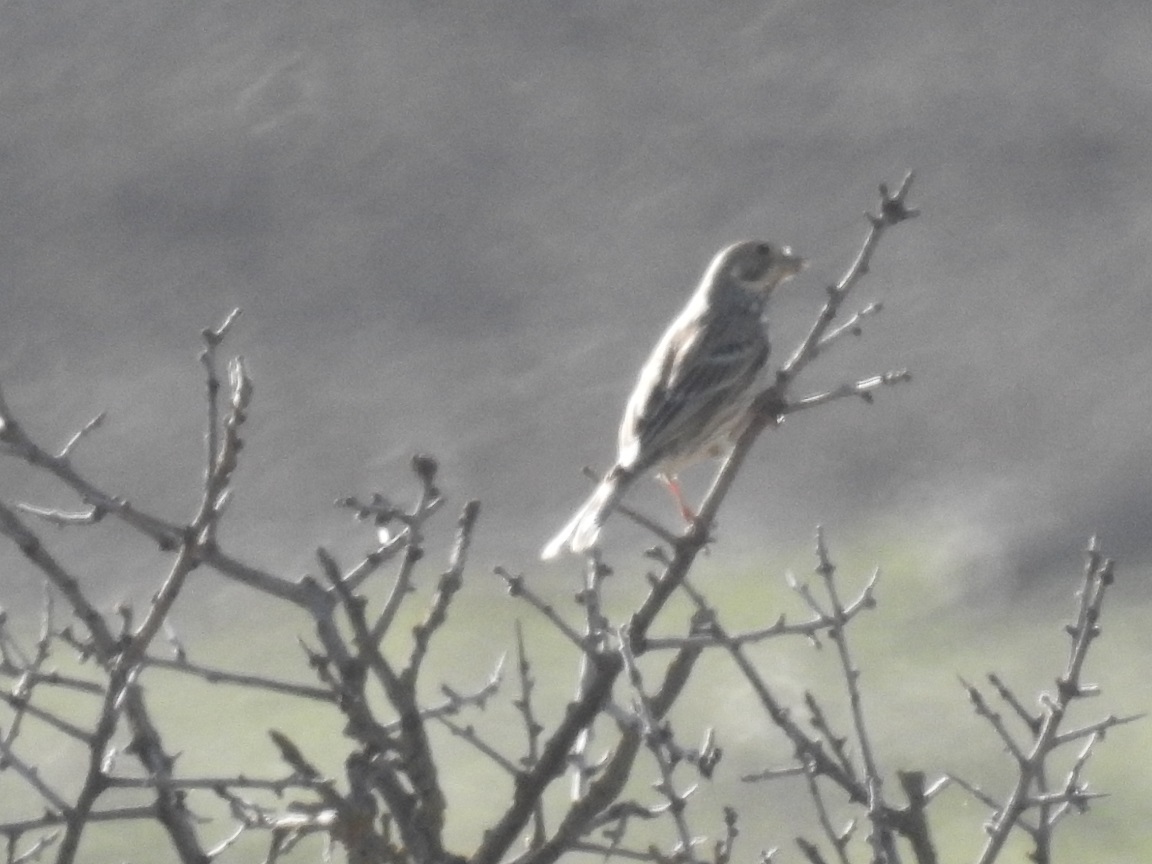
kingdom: Animalia
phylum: Chordata
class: Aves
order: Passeriformes
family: Emberizidae
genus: Emberiza
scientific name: Emberiza calandra
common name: Corn bunting
